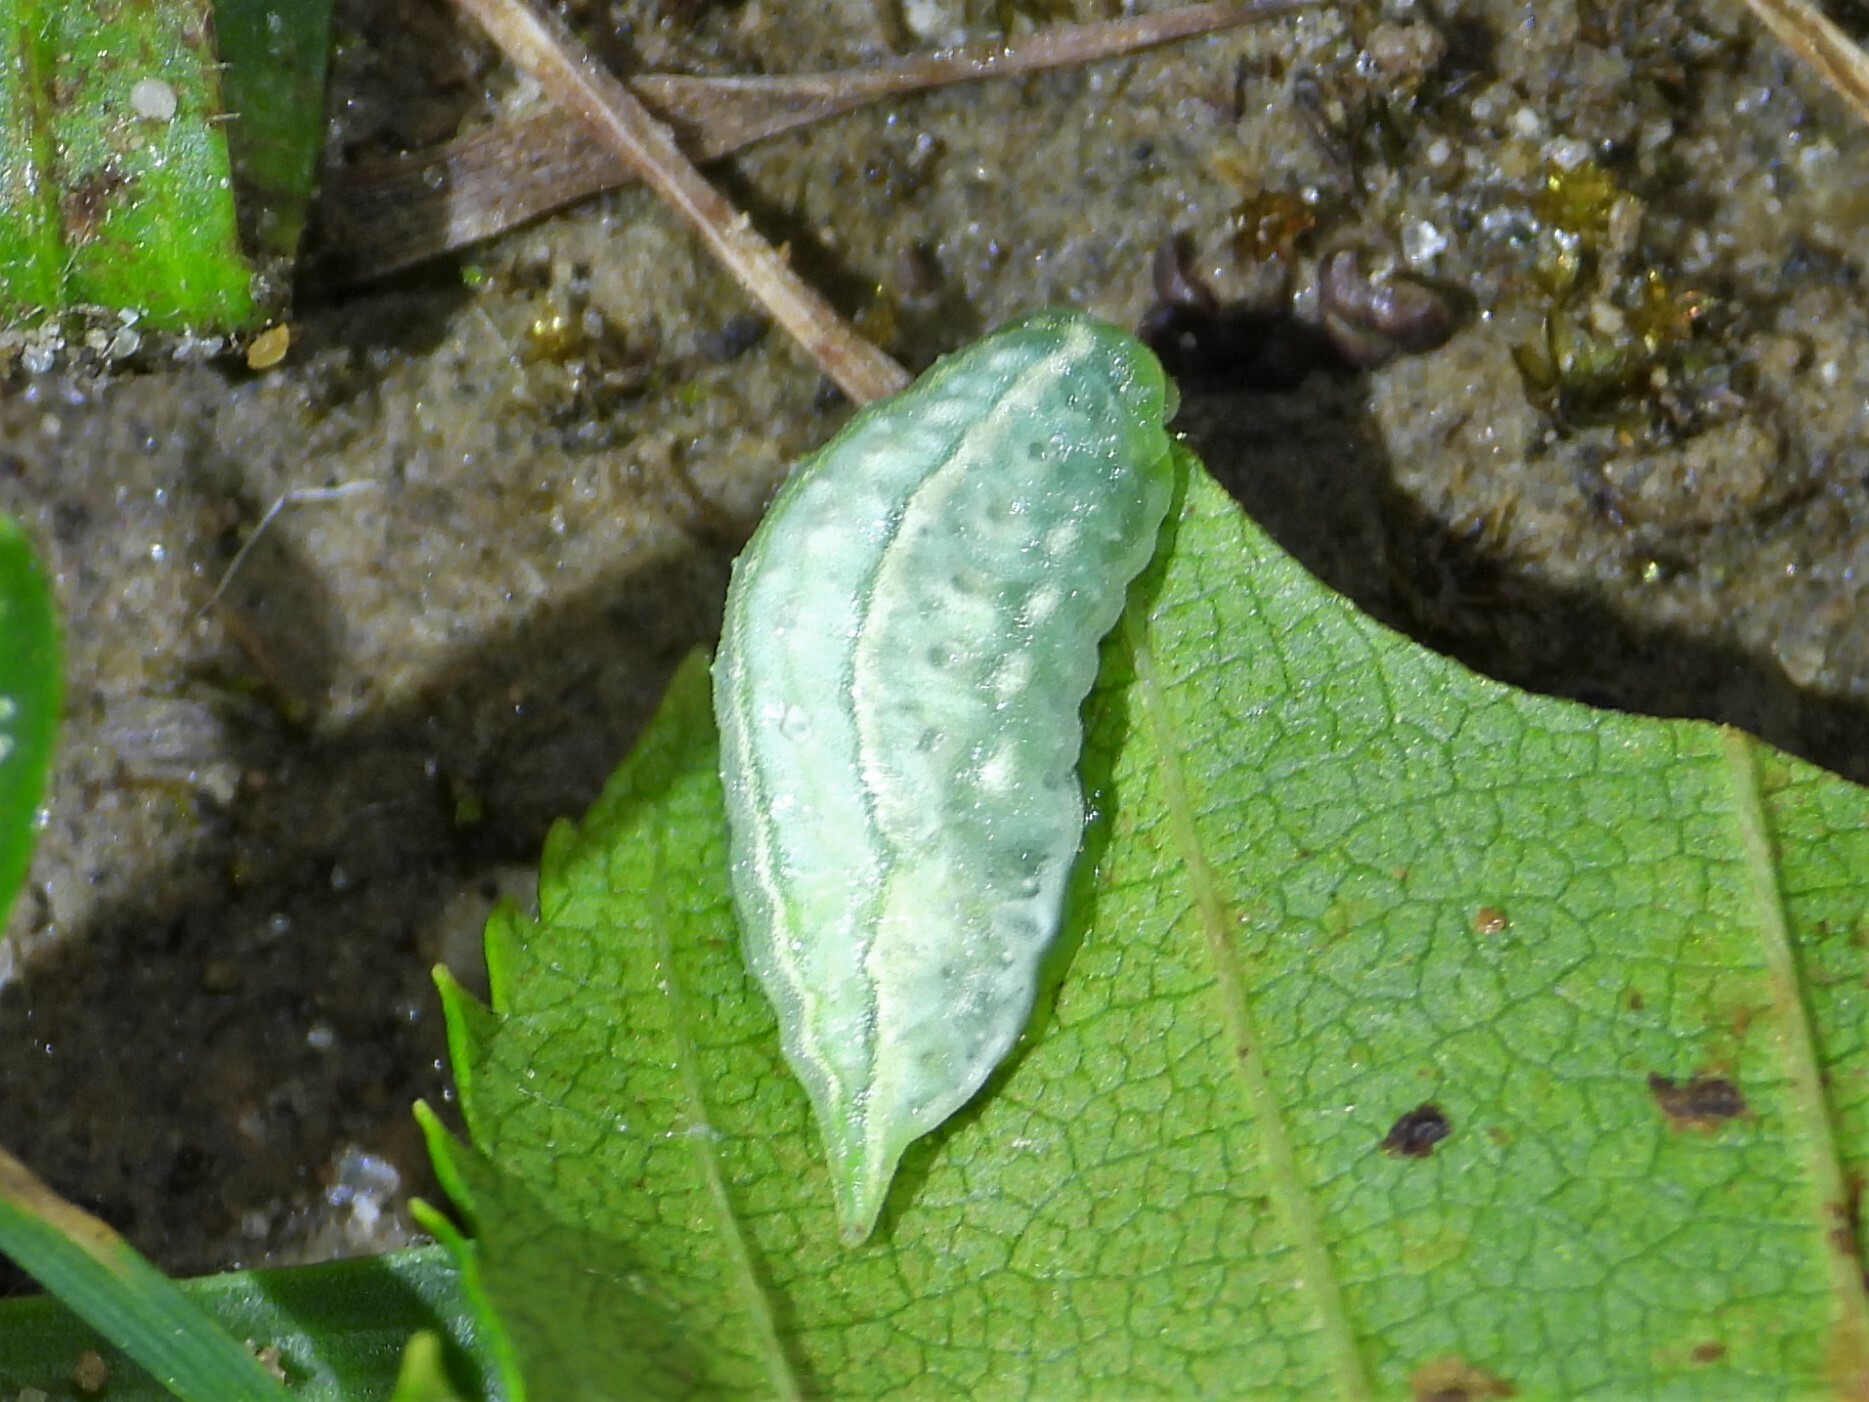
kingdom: Animalia
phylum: Arthropoda
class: Insecta
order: Lepidoptera
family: Limacodidae
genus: Packardia
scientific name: Packardia geminata
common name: Jeweled tailed slug moth
